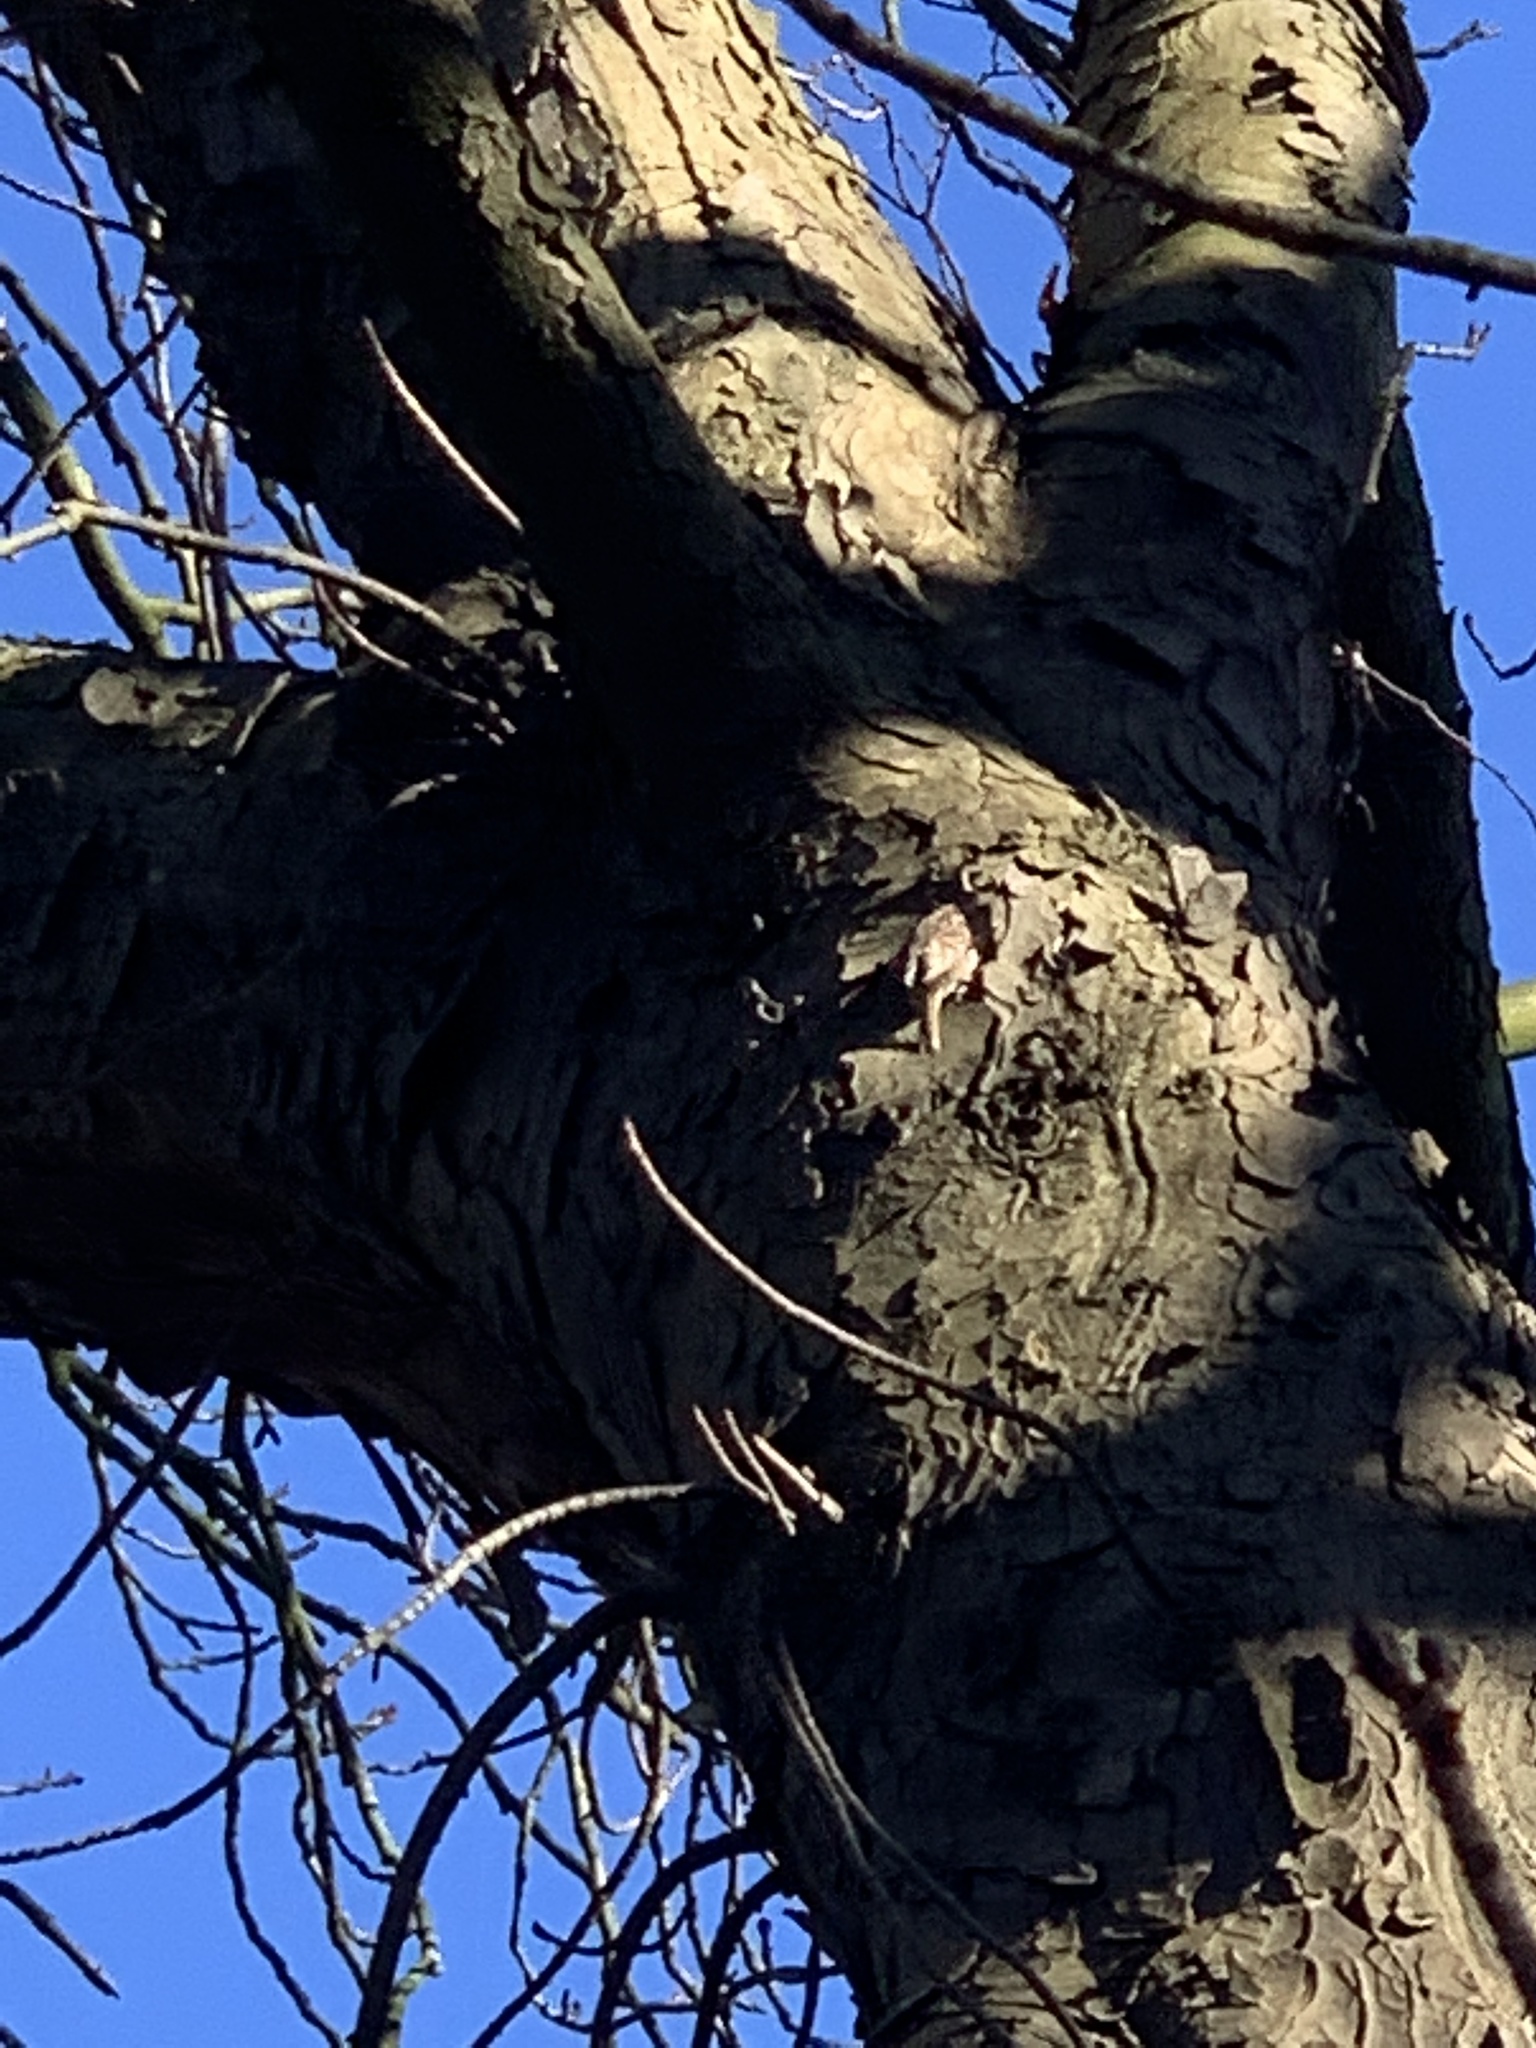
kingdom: Animalia
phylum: Chordata
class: Aves
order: Passeriformes
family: Certhiidae
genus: Certhia
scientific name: Certhia brachydactyla
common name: Short-toed treecreeper
